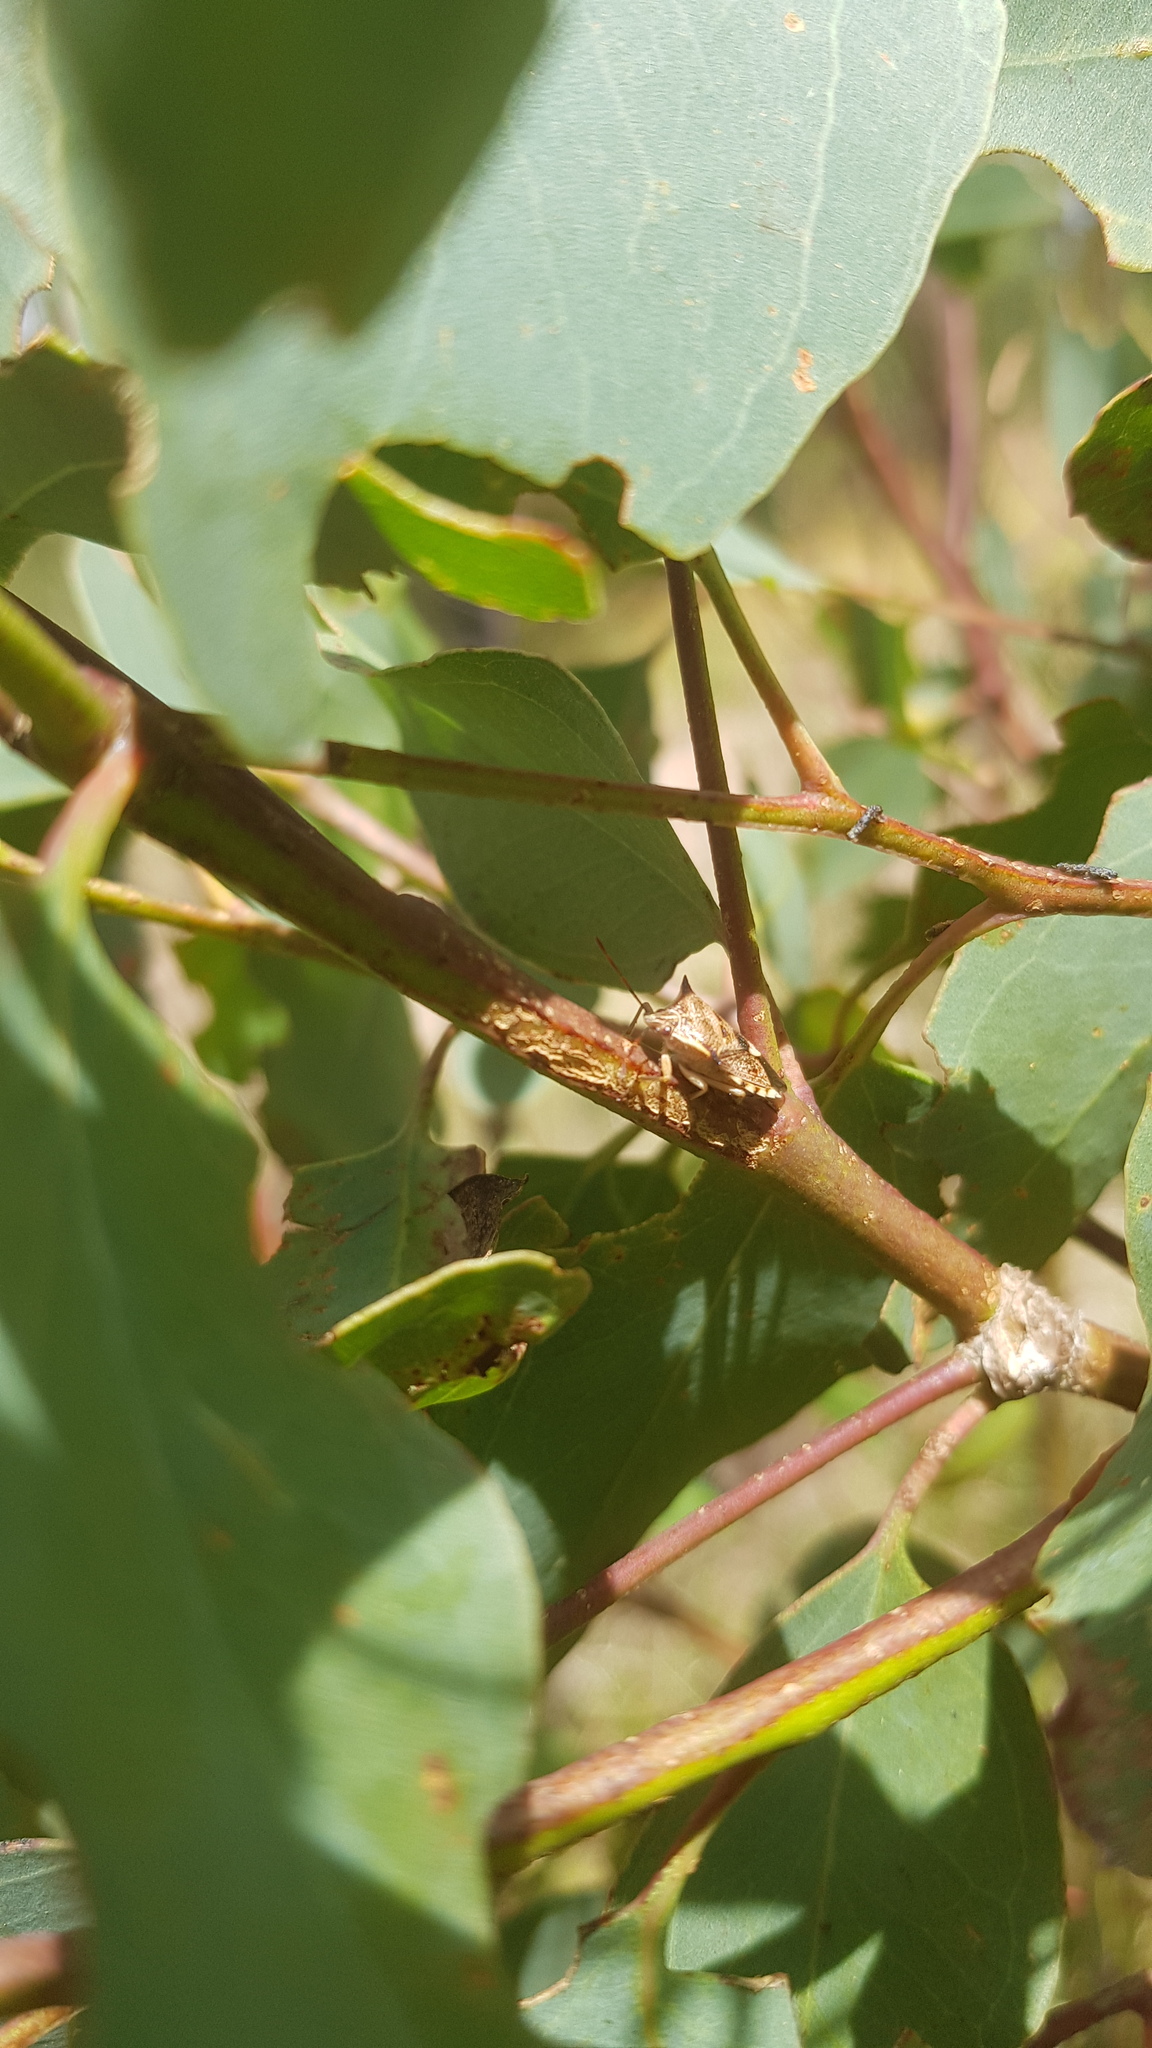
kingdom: Animalia
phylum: Arthropoda
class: Insecta
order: Hemiptera
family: Pentatomidae
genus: Oechalia
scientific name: Oechalia schellenbergii
